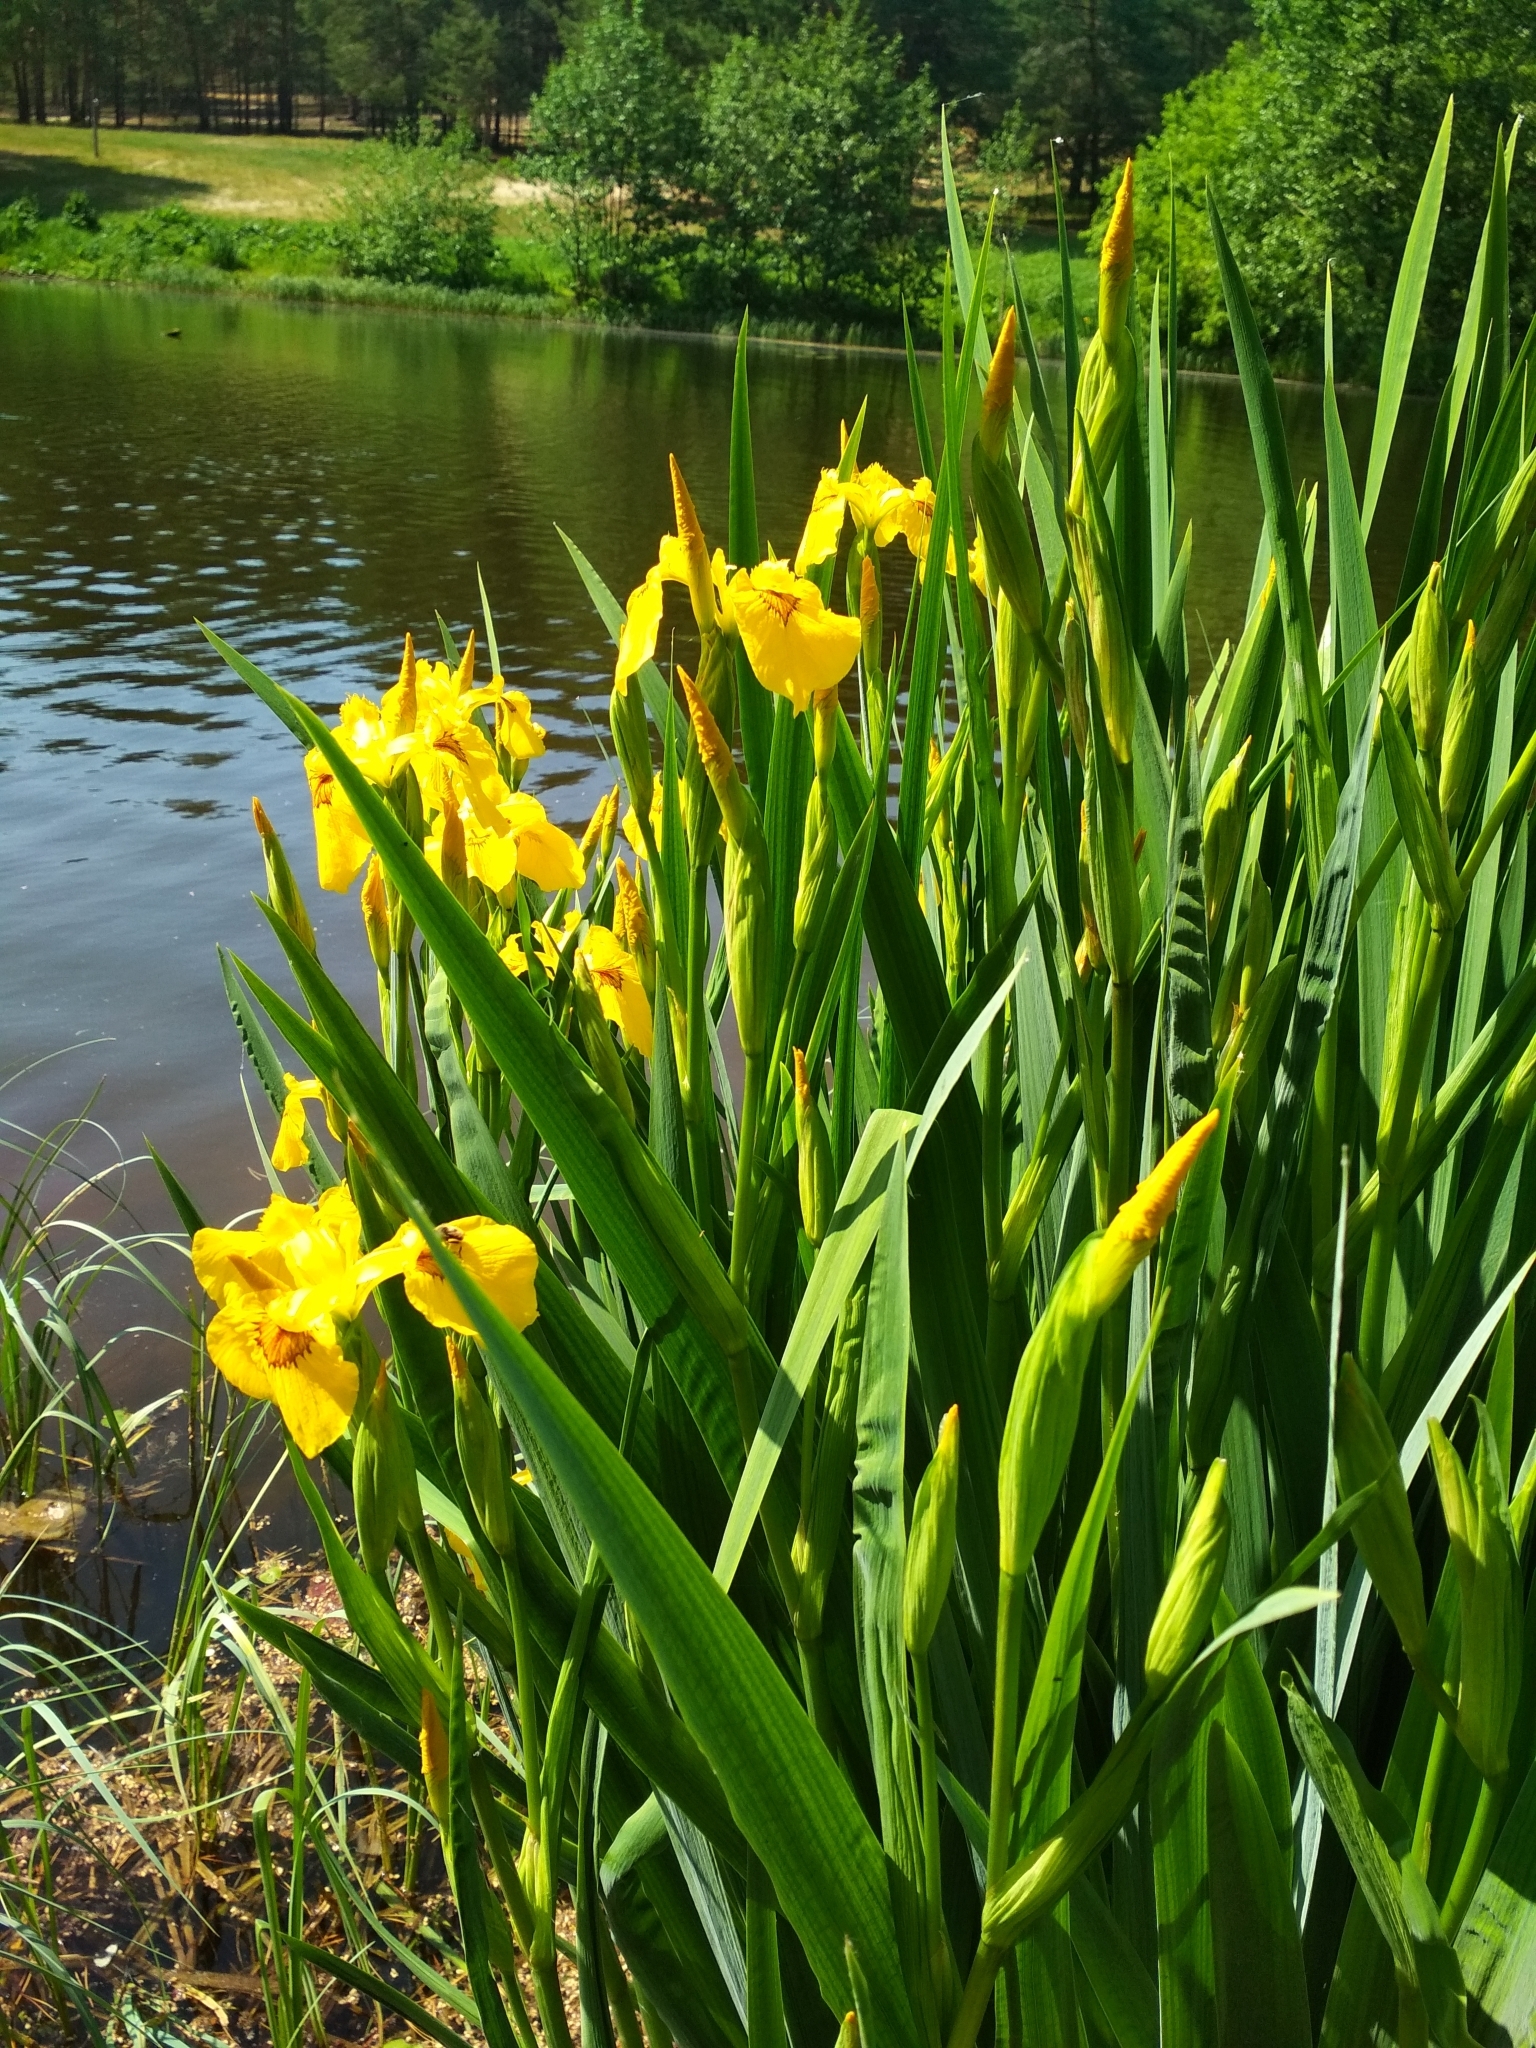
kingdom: Plantae
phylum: Tracheophyta
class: Liliopsida
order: Asparagales
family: Iridaceae
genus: Iris
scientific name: Iris pseudacorus
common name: Yellow flag
